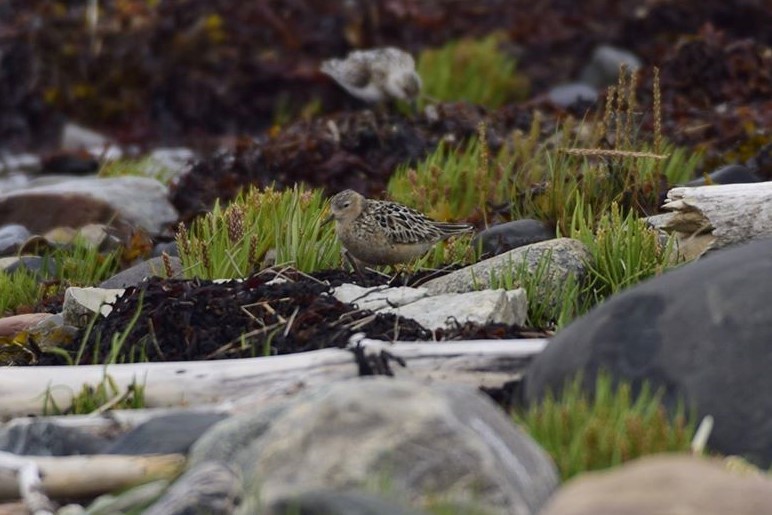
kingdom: Animalia
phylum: Chordata
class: Aves
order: Charadriiformes
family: Scolopacidae
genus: Calidris
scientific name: Calidris subruficollis
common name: Buff-breasted sandpiper
